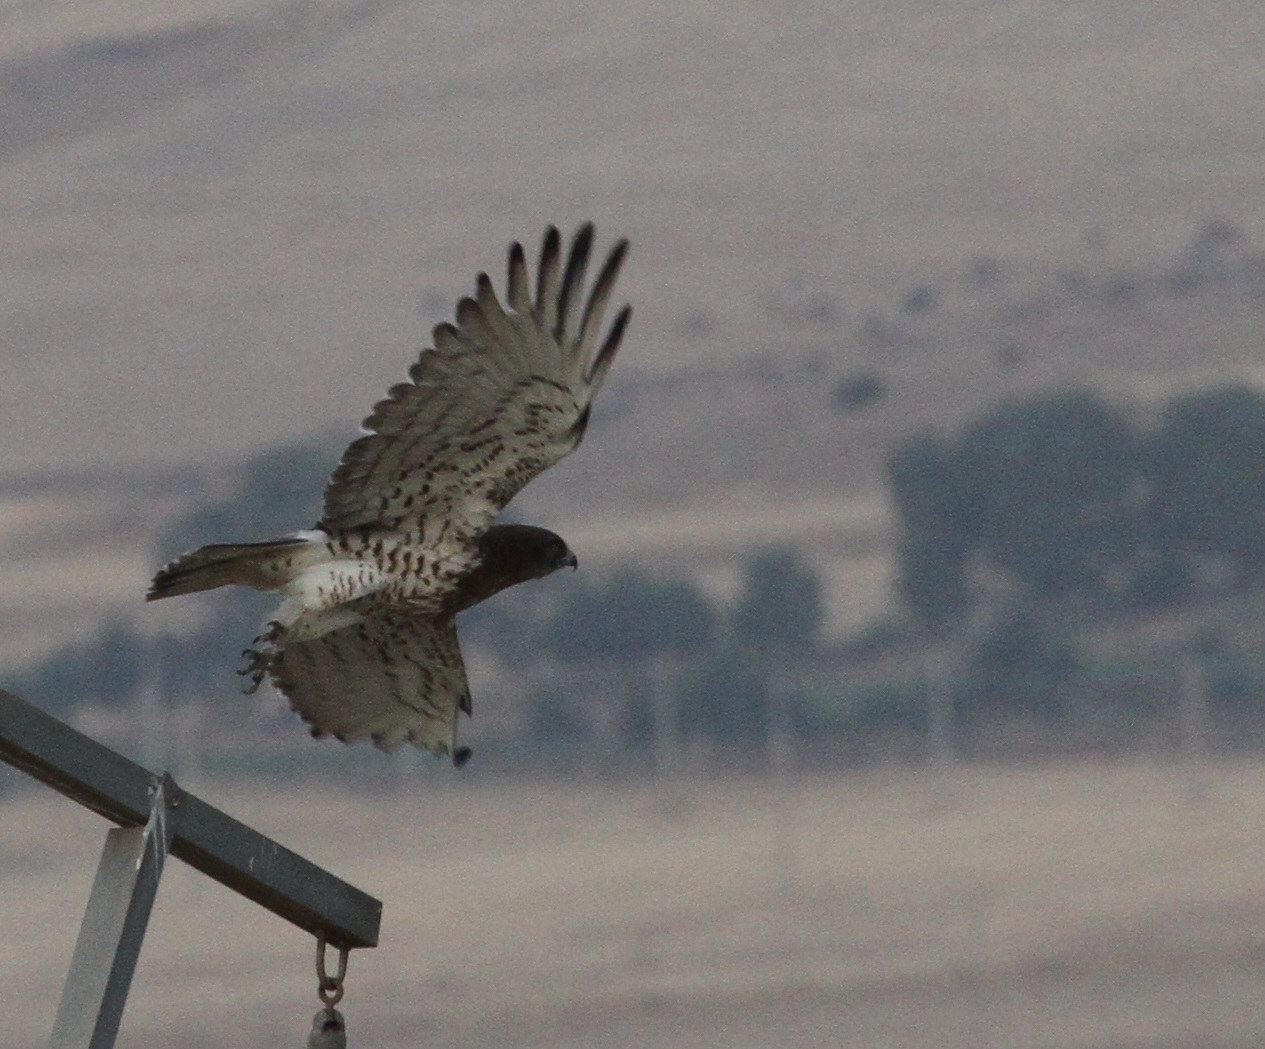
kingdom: Animalia
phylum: Chordata
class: Aves
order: Accipitriformes
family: Accipitridae
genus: Circaetus
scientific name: Circaetus gallicus
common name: Short-toed snake eagle
